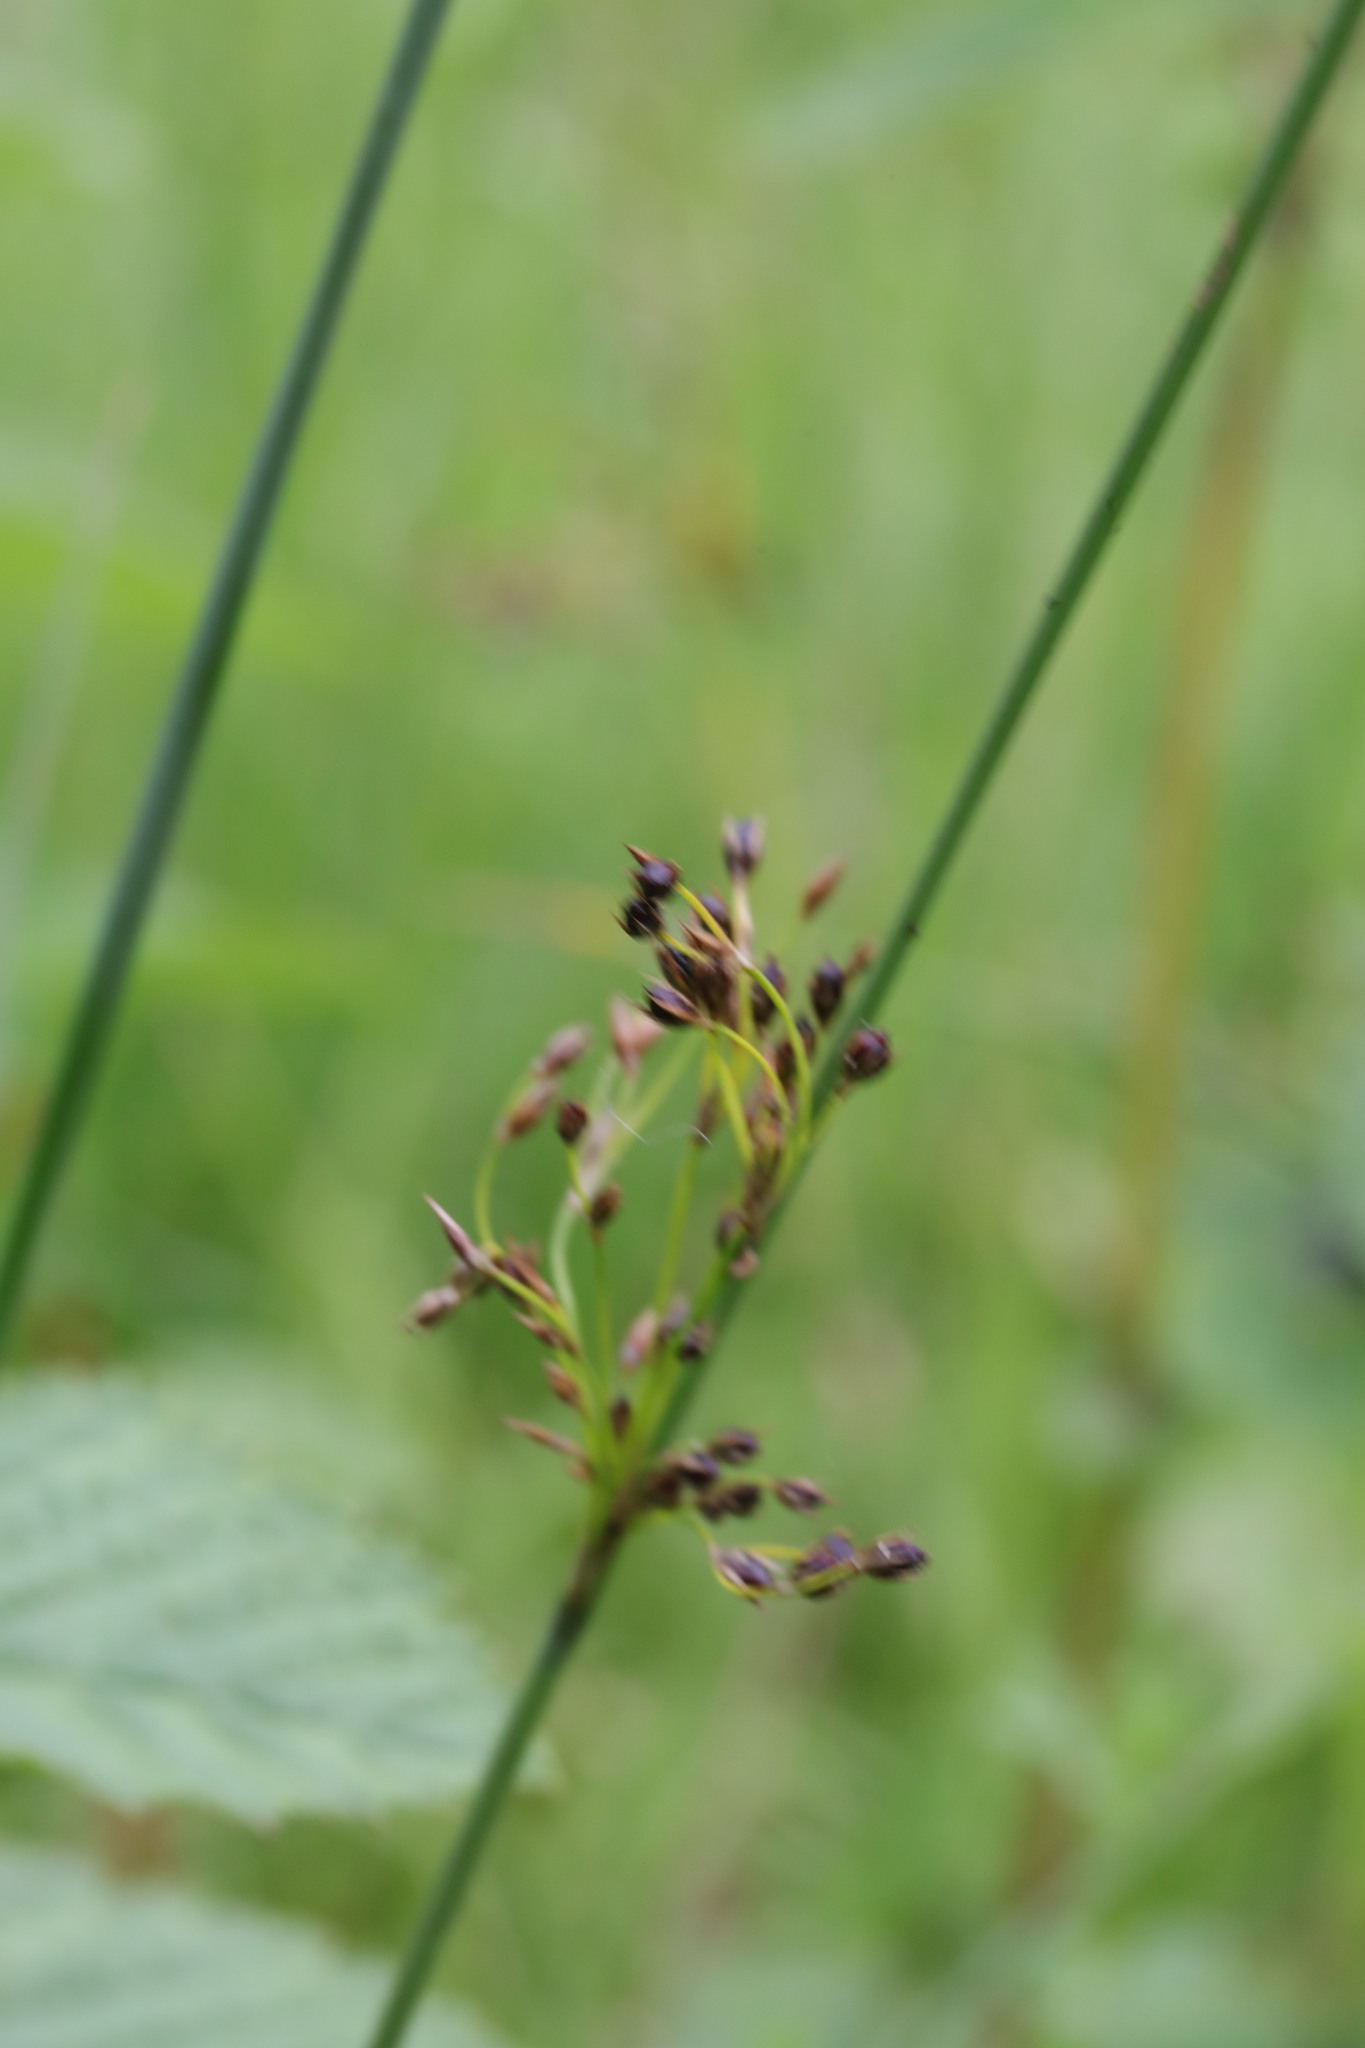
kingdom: Plantae
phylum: Tracheophyta
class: Liliopsida
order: Poales
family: Juncaceae
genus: Juncus
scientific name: Juncus inflexus
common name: Hard rush
